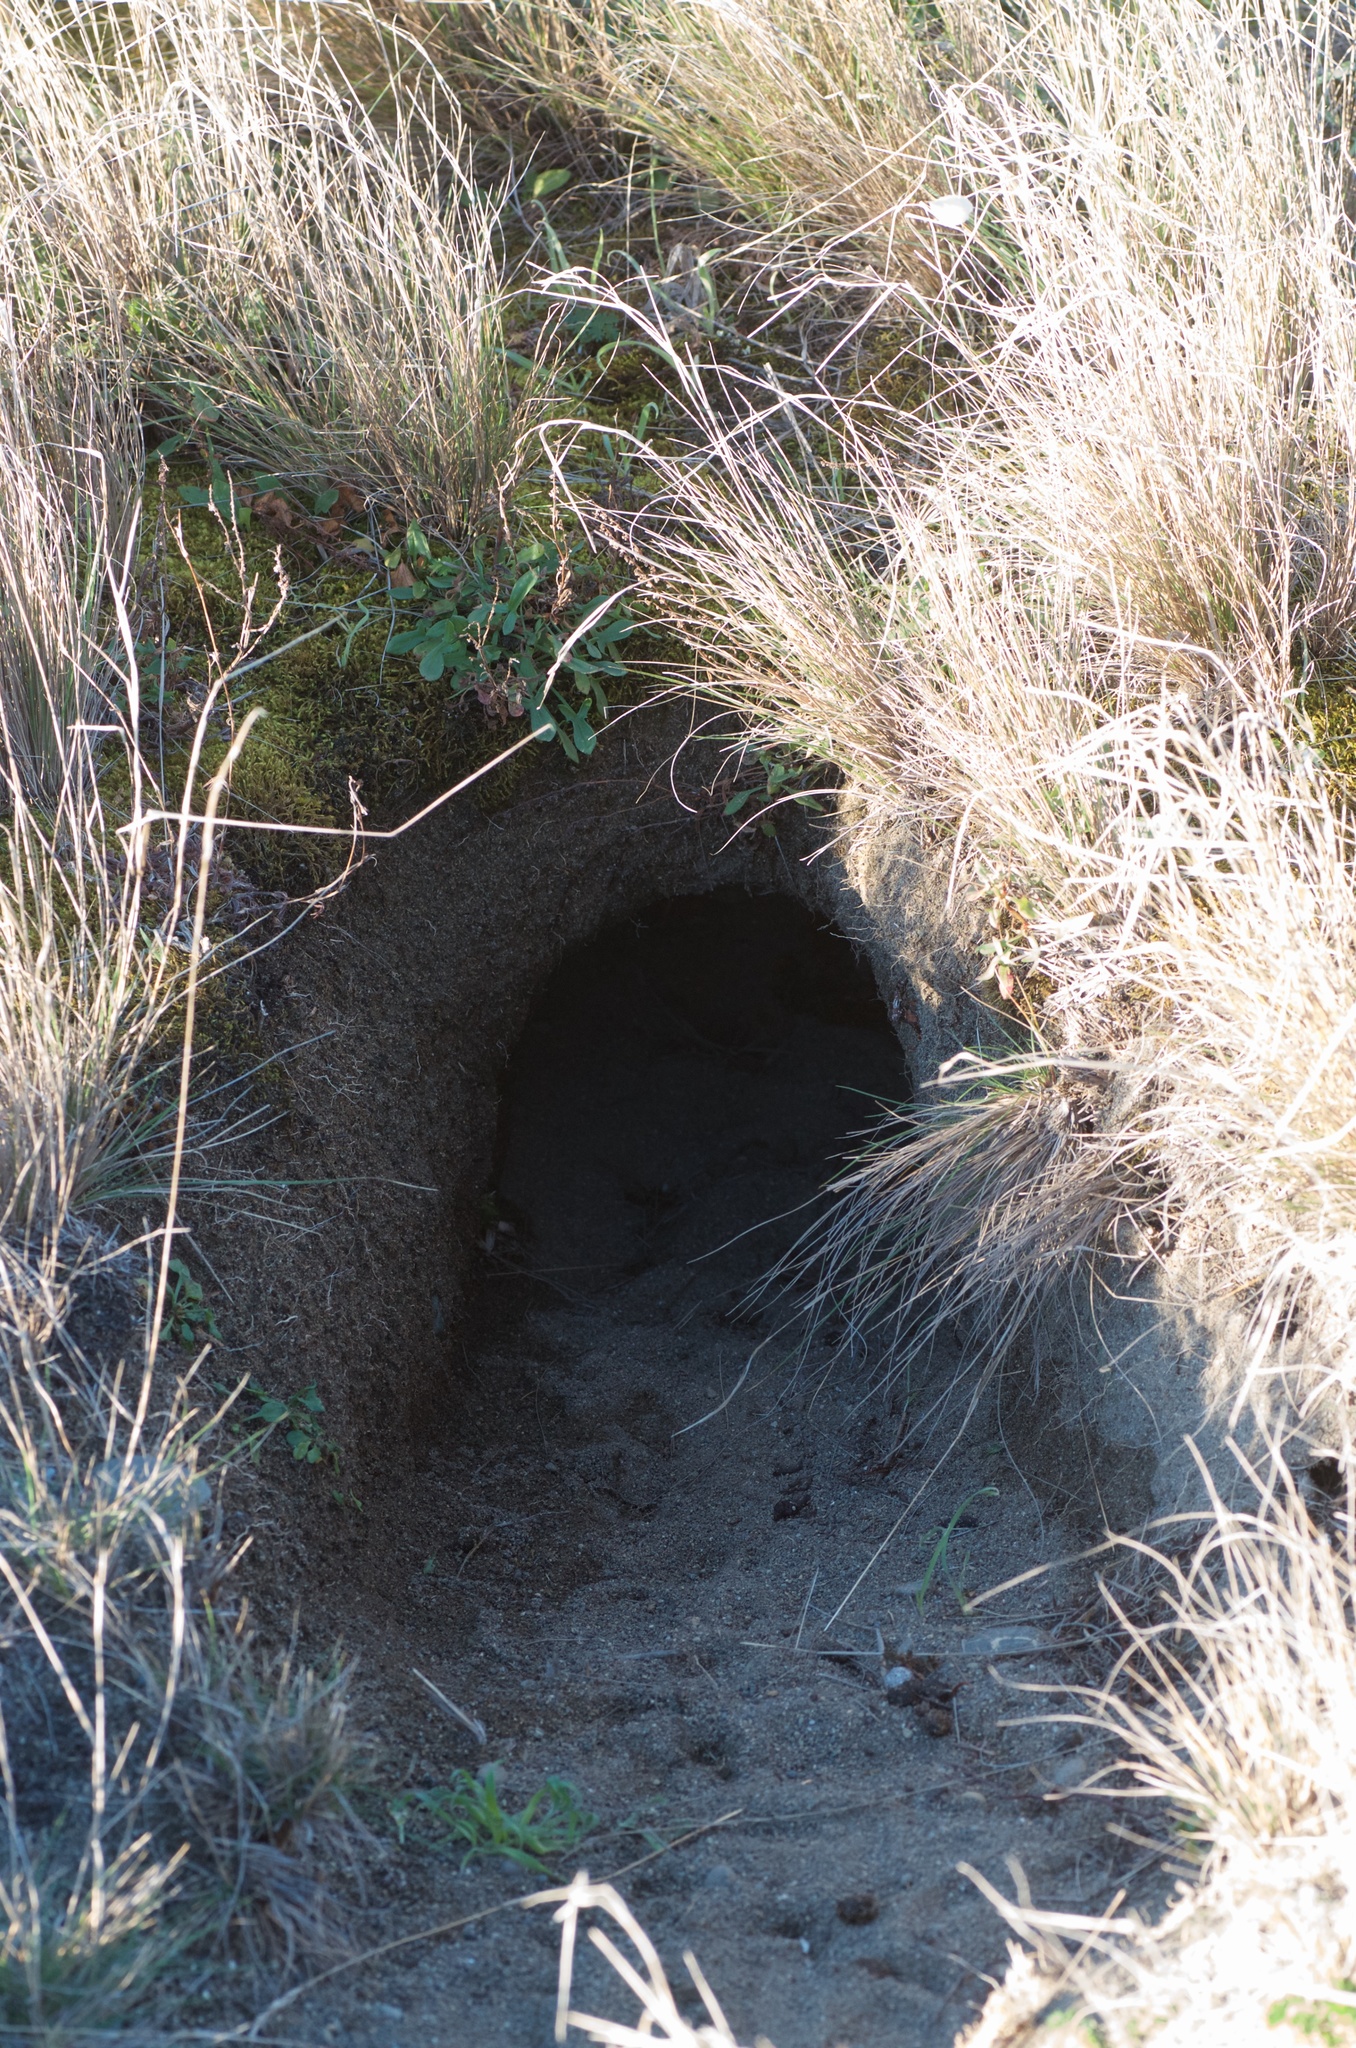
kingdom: Animalia
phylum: Chordata
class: Mammalia
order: Lagomorpha
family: Leporidae
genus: Oryctolagus
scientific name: Oryctolagus cuniculus
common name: European rabbit
